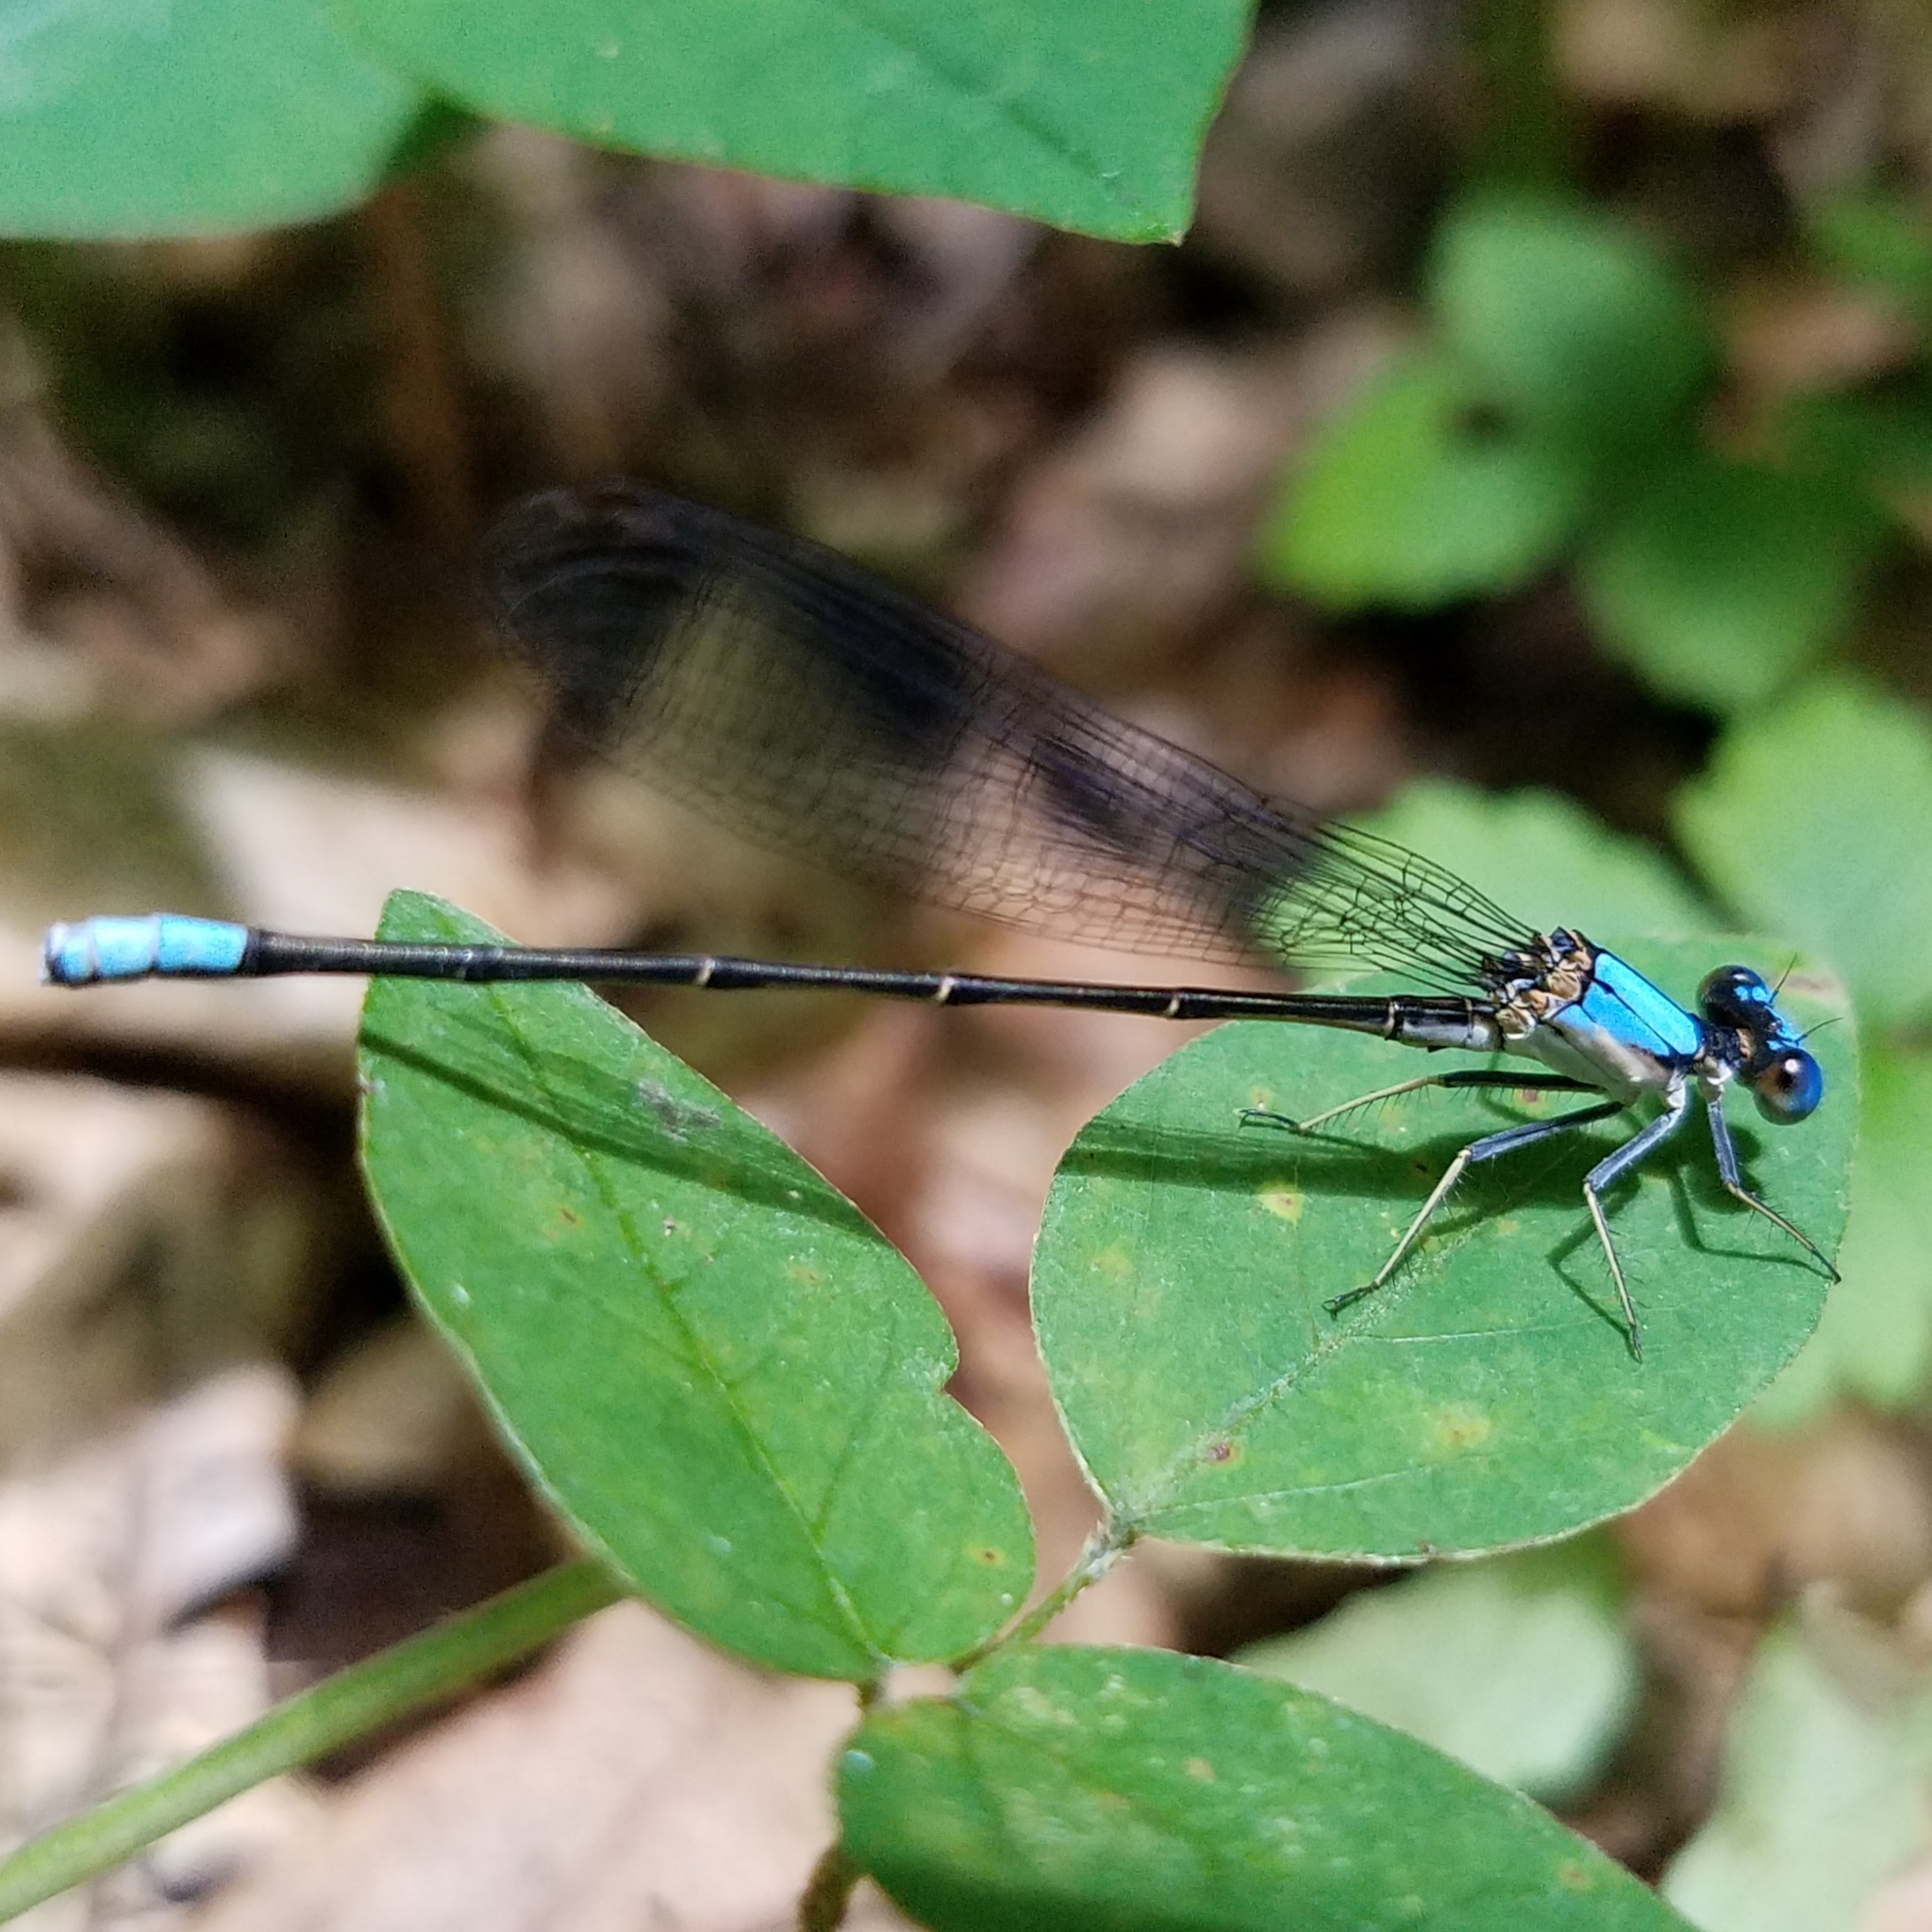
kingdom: Animalia
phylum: Arthropoda
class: Insecta
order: Odonata
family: Coenagrionidae
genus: Argia
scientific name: Argia apicalis
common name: Blue-fronted dancer
